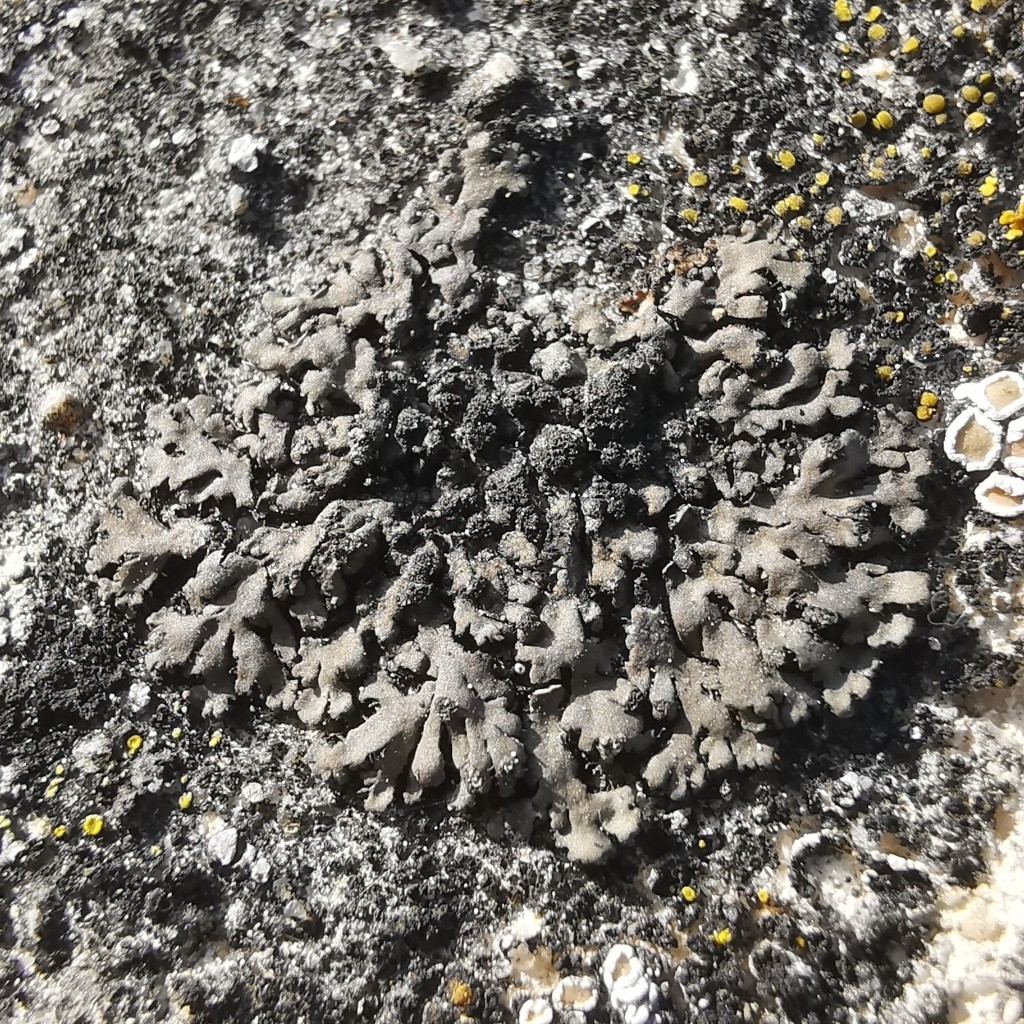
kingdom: Fungi
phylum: Ascomycota
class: Lecanoromycetes
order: Caliciales
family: Physciaceae
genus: Phaeophyscia
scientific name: Phaeophyscia orbicularis
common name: Mealy shadow lichen
